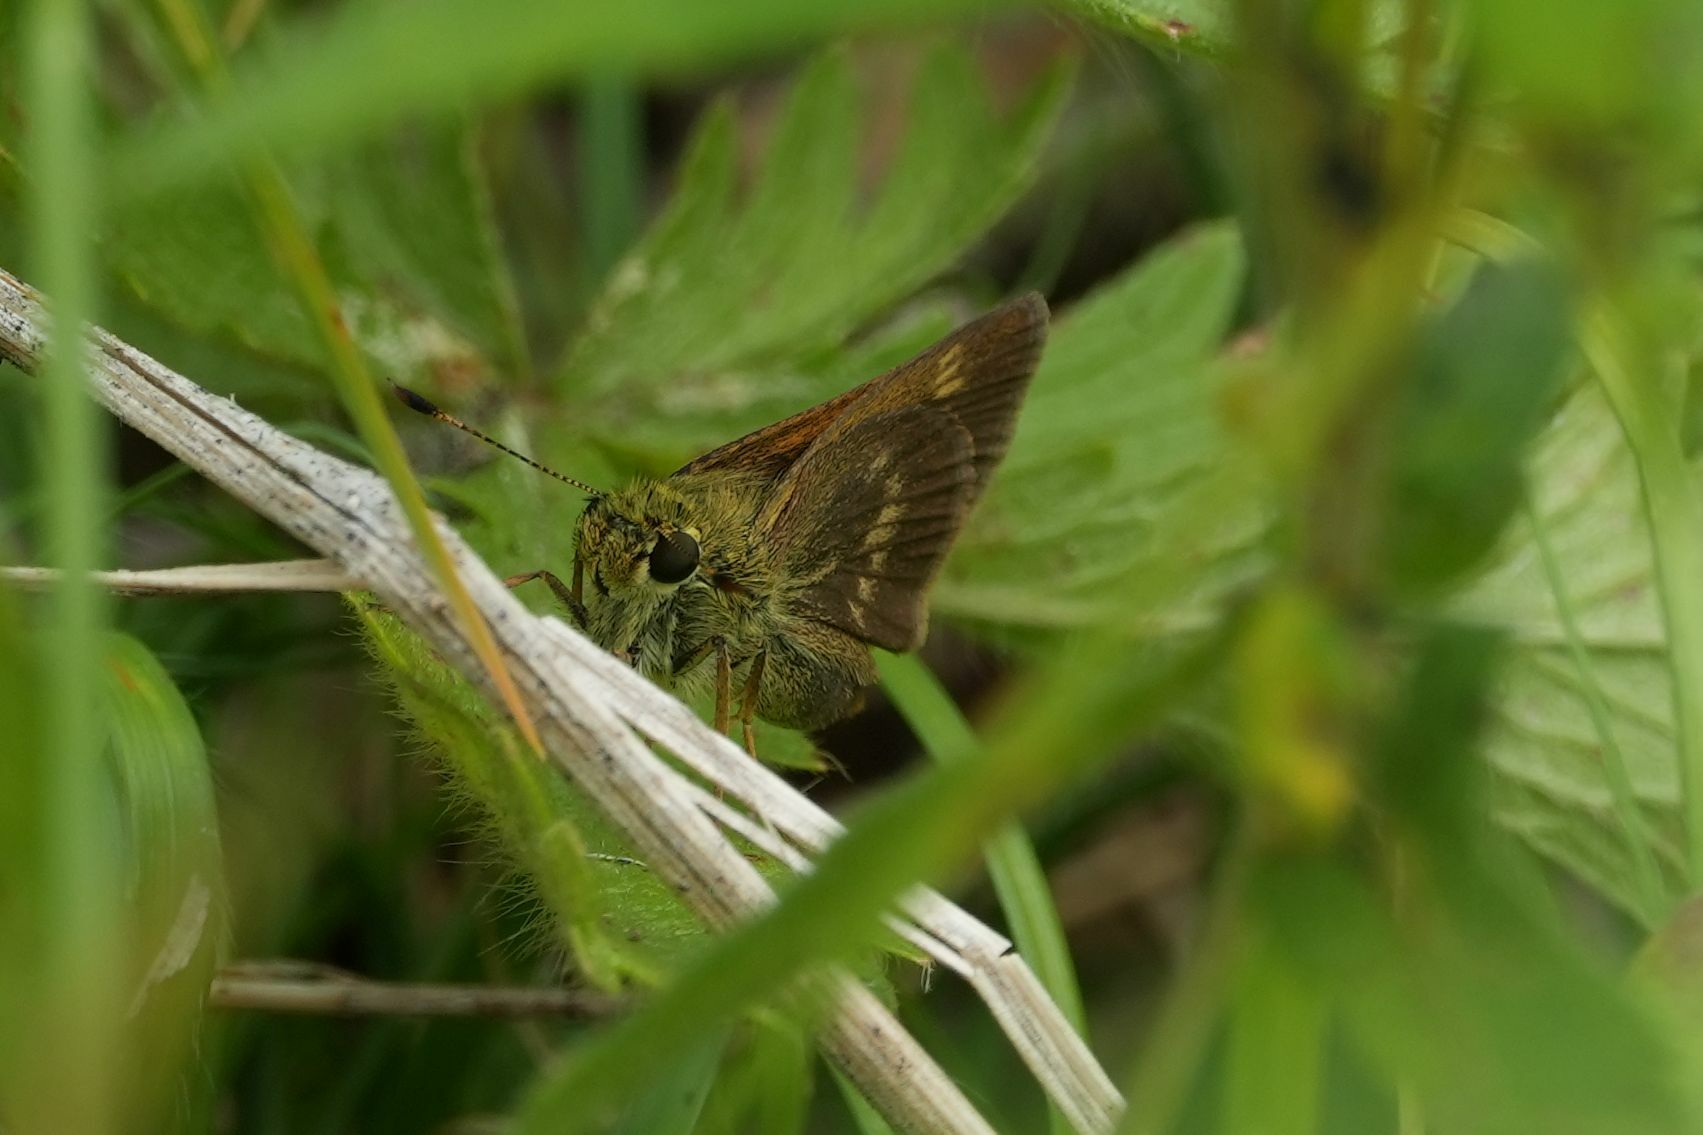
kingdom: Animalia
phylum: Arthropoda
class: Insecta
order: Lepidoptera
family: Hesperiidae
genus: Polites
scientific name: Polites egeremet
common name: Northern broken-dash
